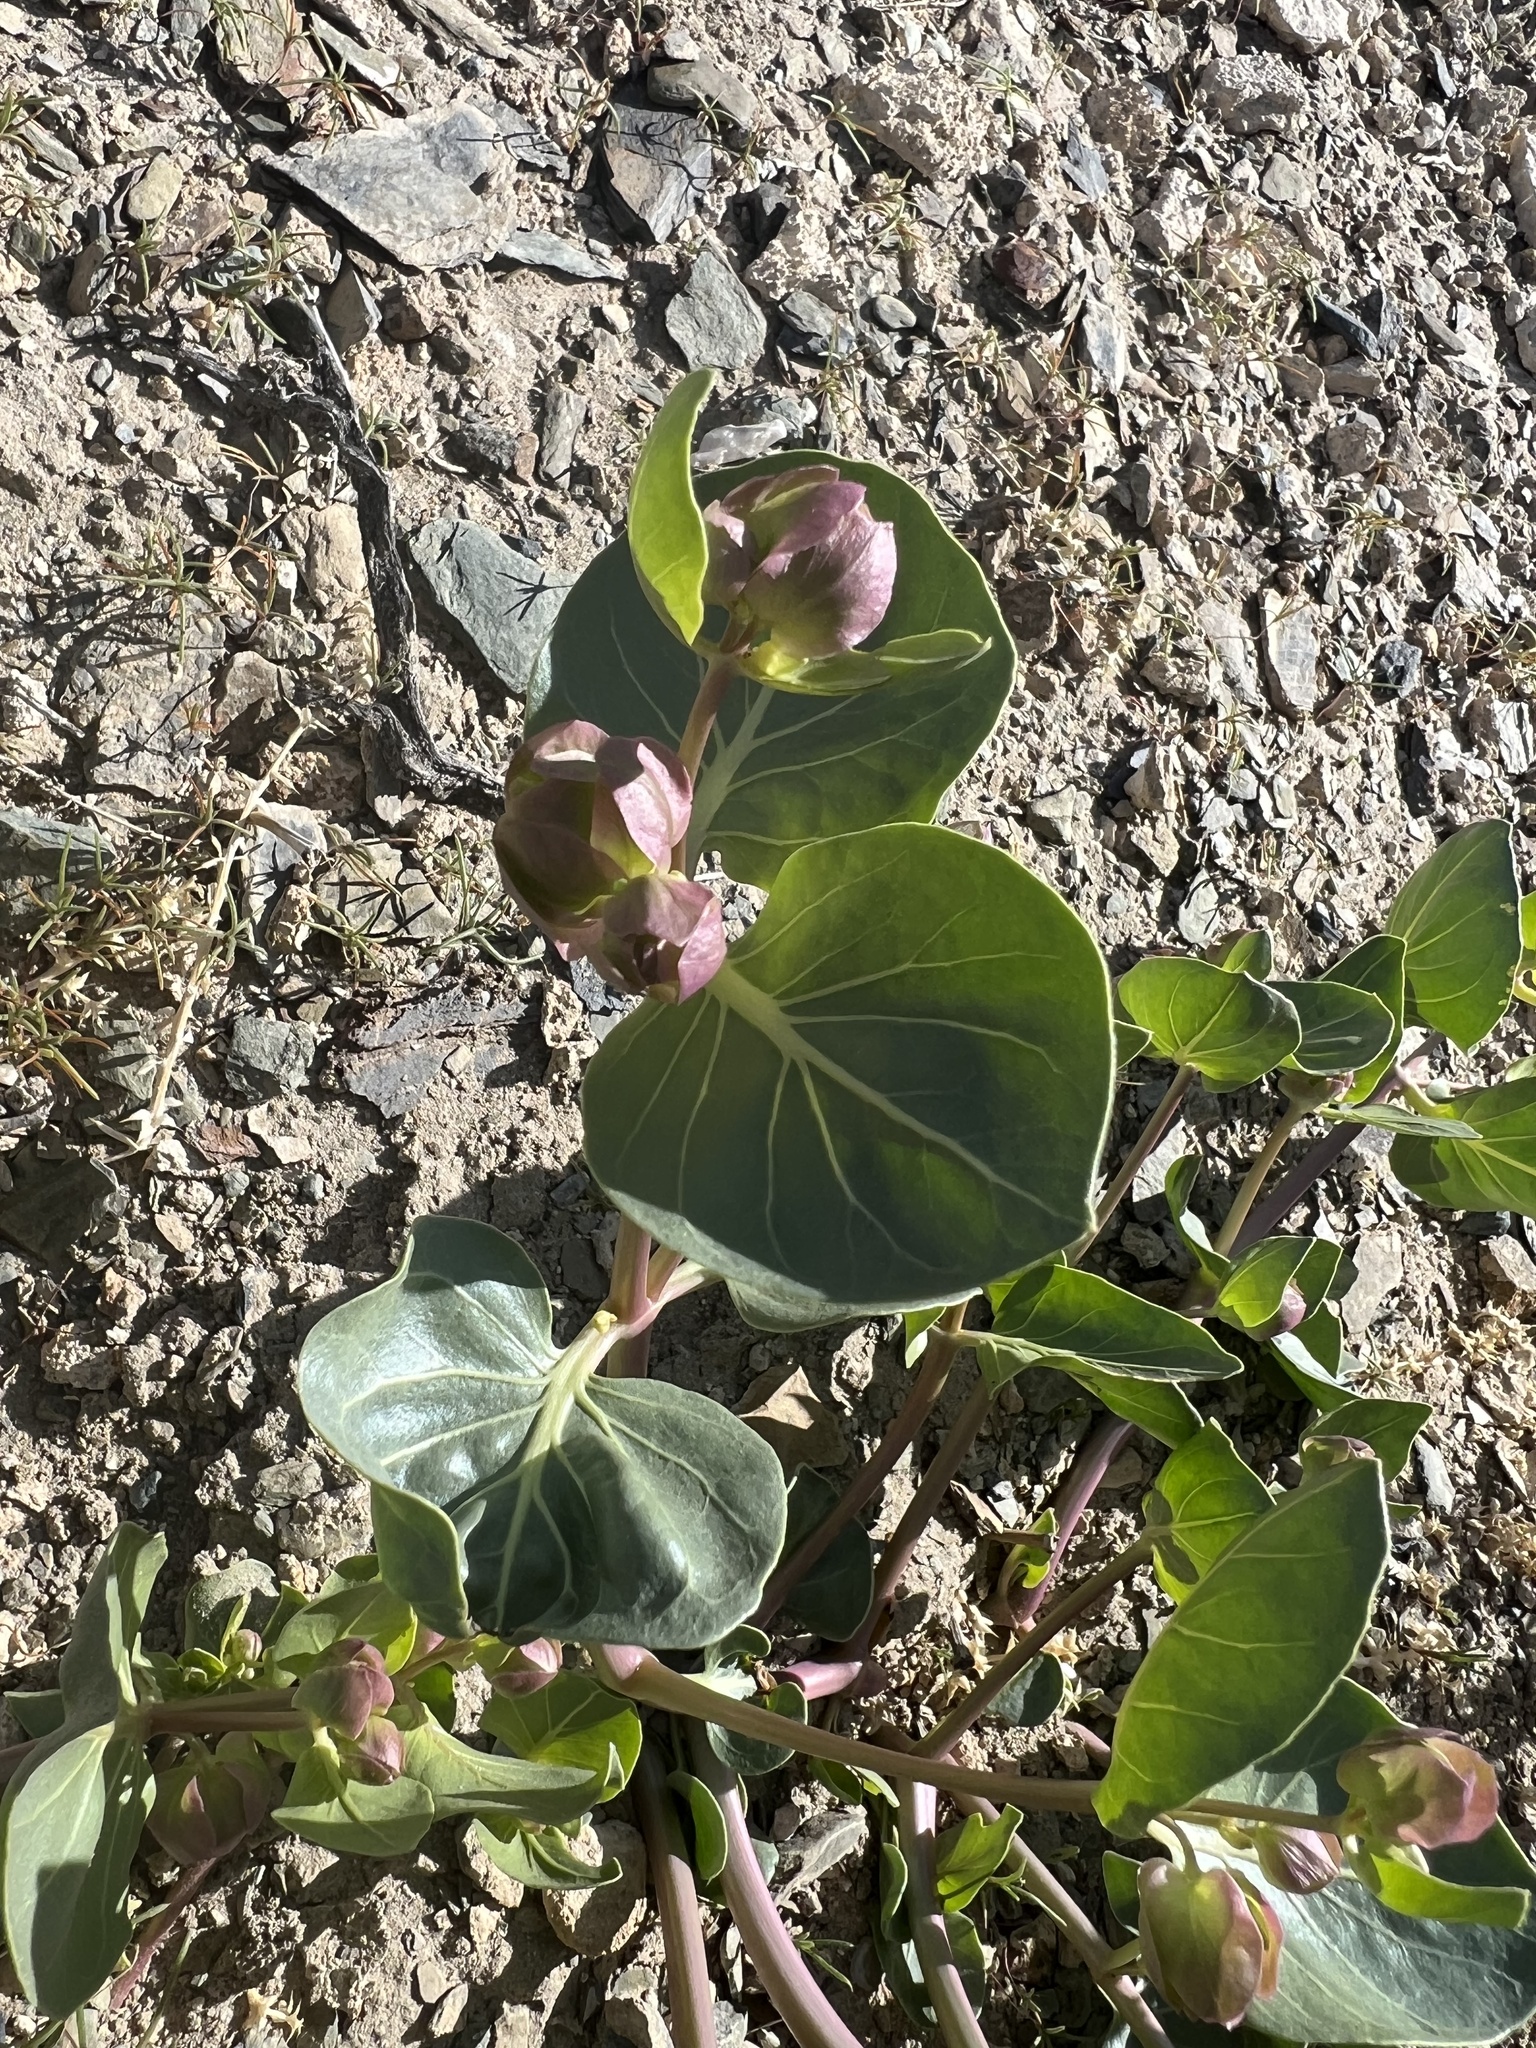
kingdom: Plantae
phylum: Tracheophyta
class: Magnoliopsida
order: Caryophyllales
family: Nyctaginaceae
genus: Mirabilis
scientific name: Mirabilis alipes
